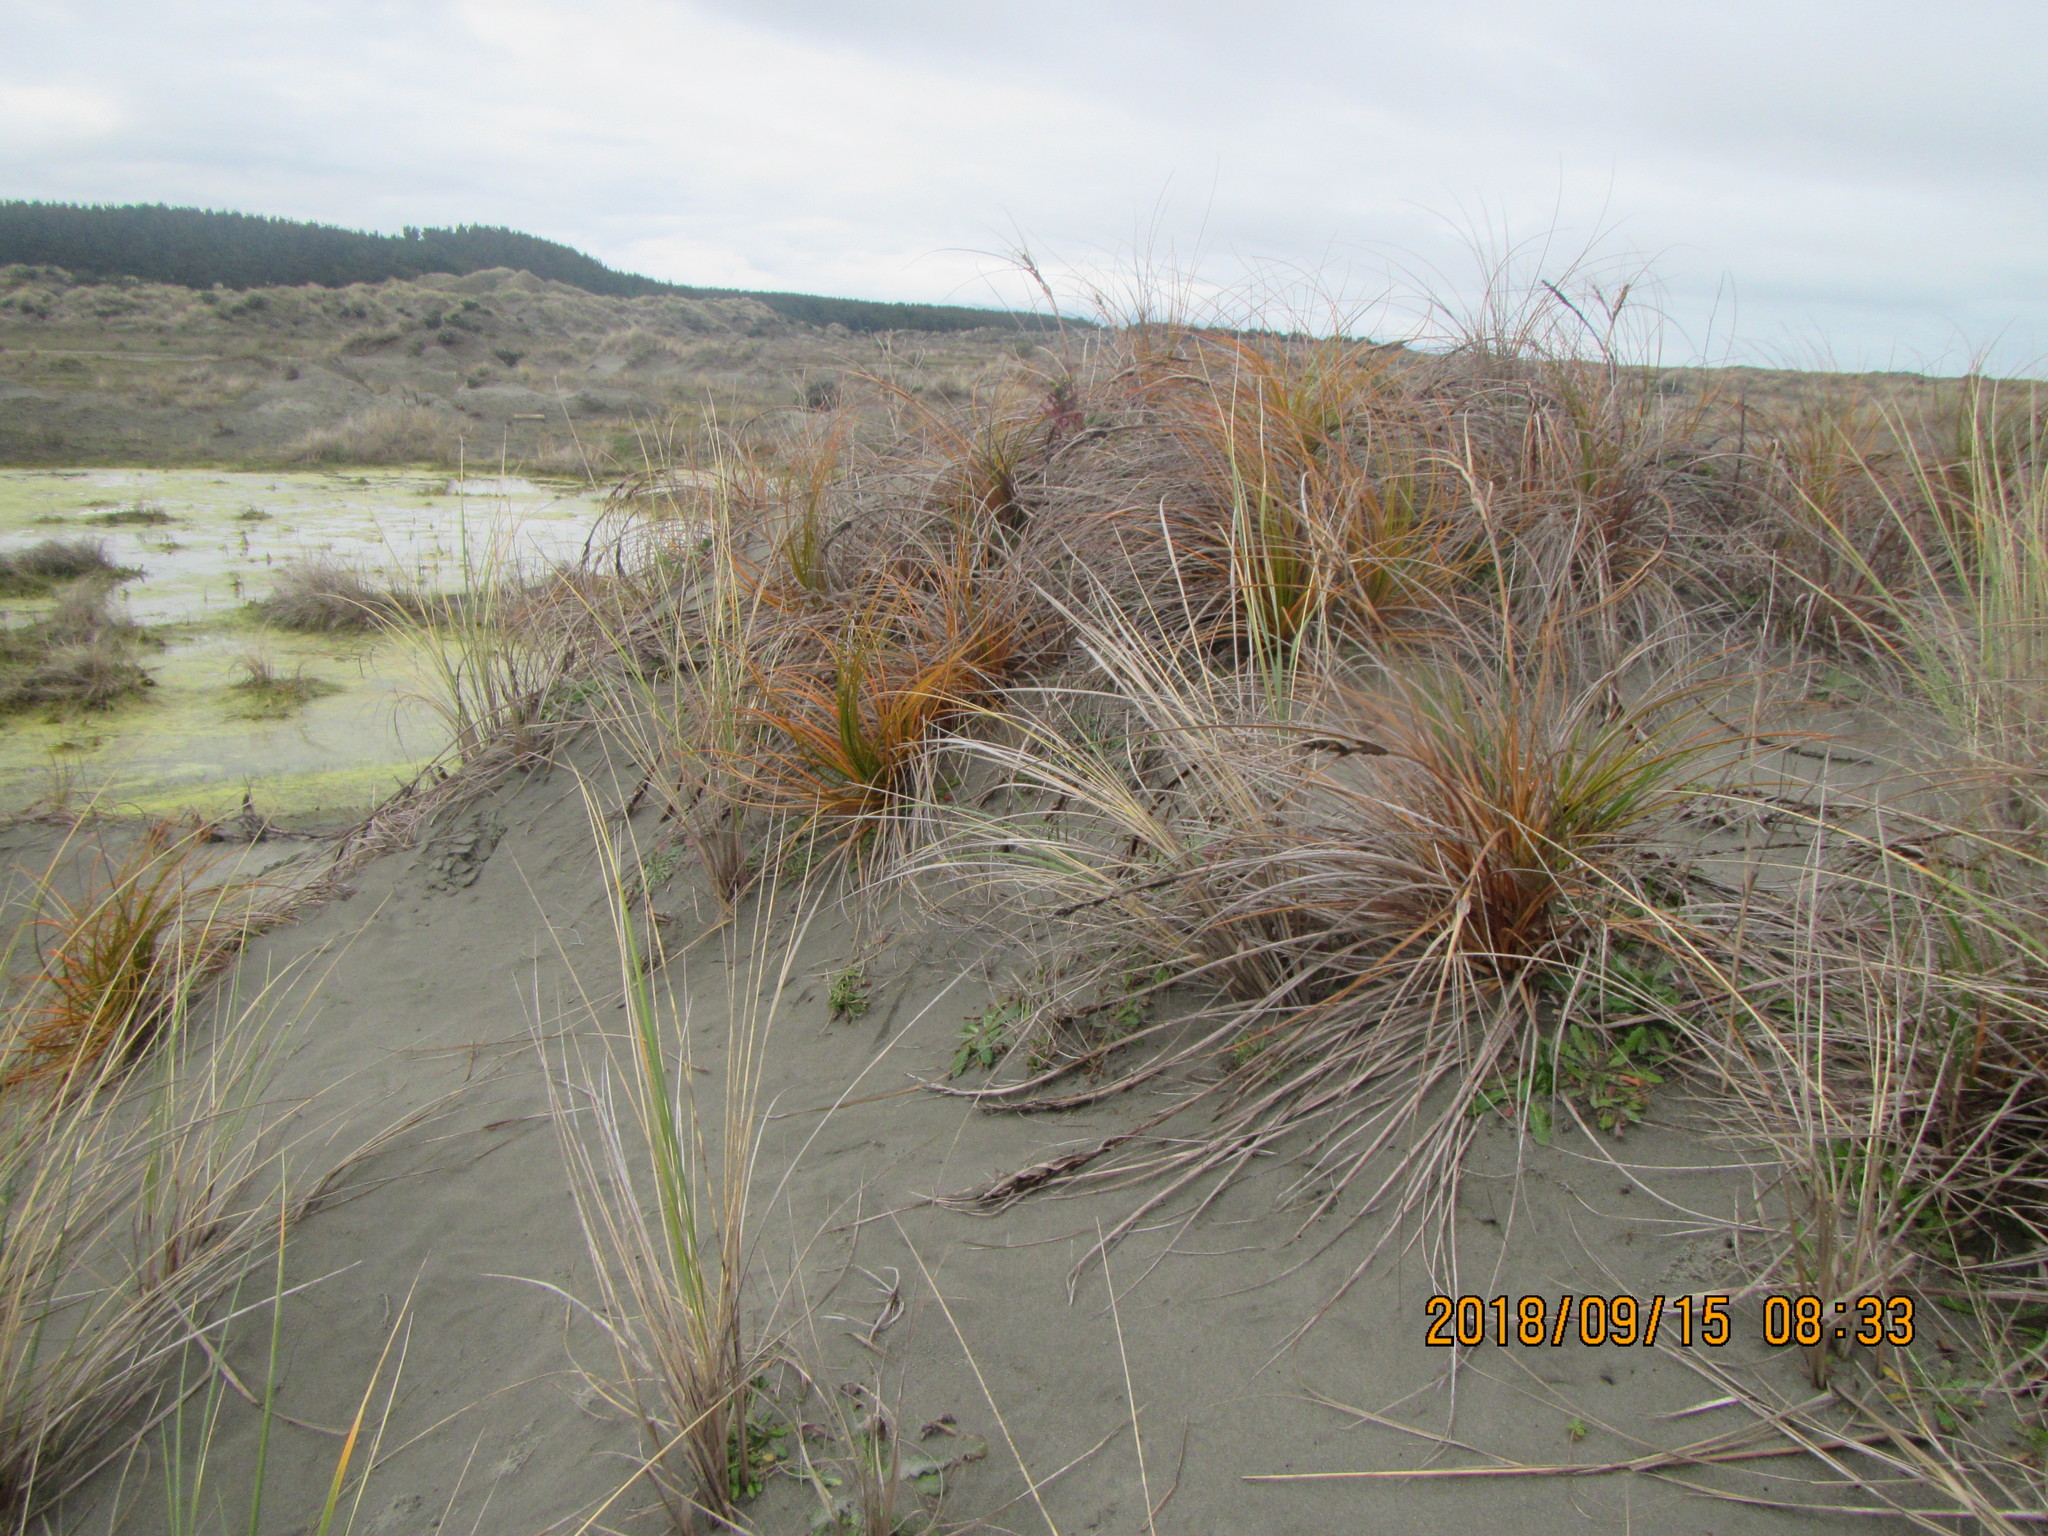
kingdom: Plantae
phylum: Tracheophyta
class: Liliopsida
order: Poales
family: Cyperaceae
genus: Ficinia
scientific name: Ficinia spiralis
